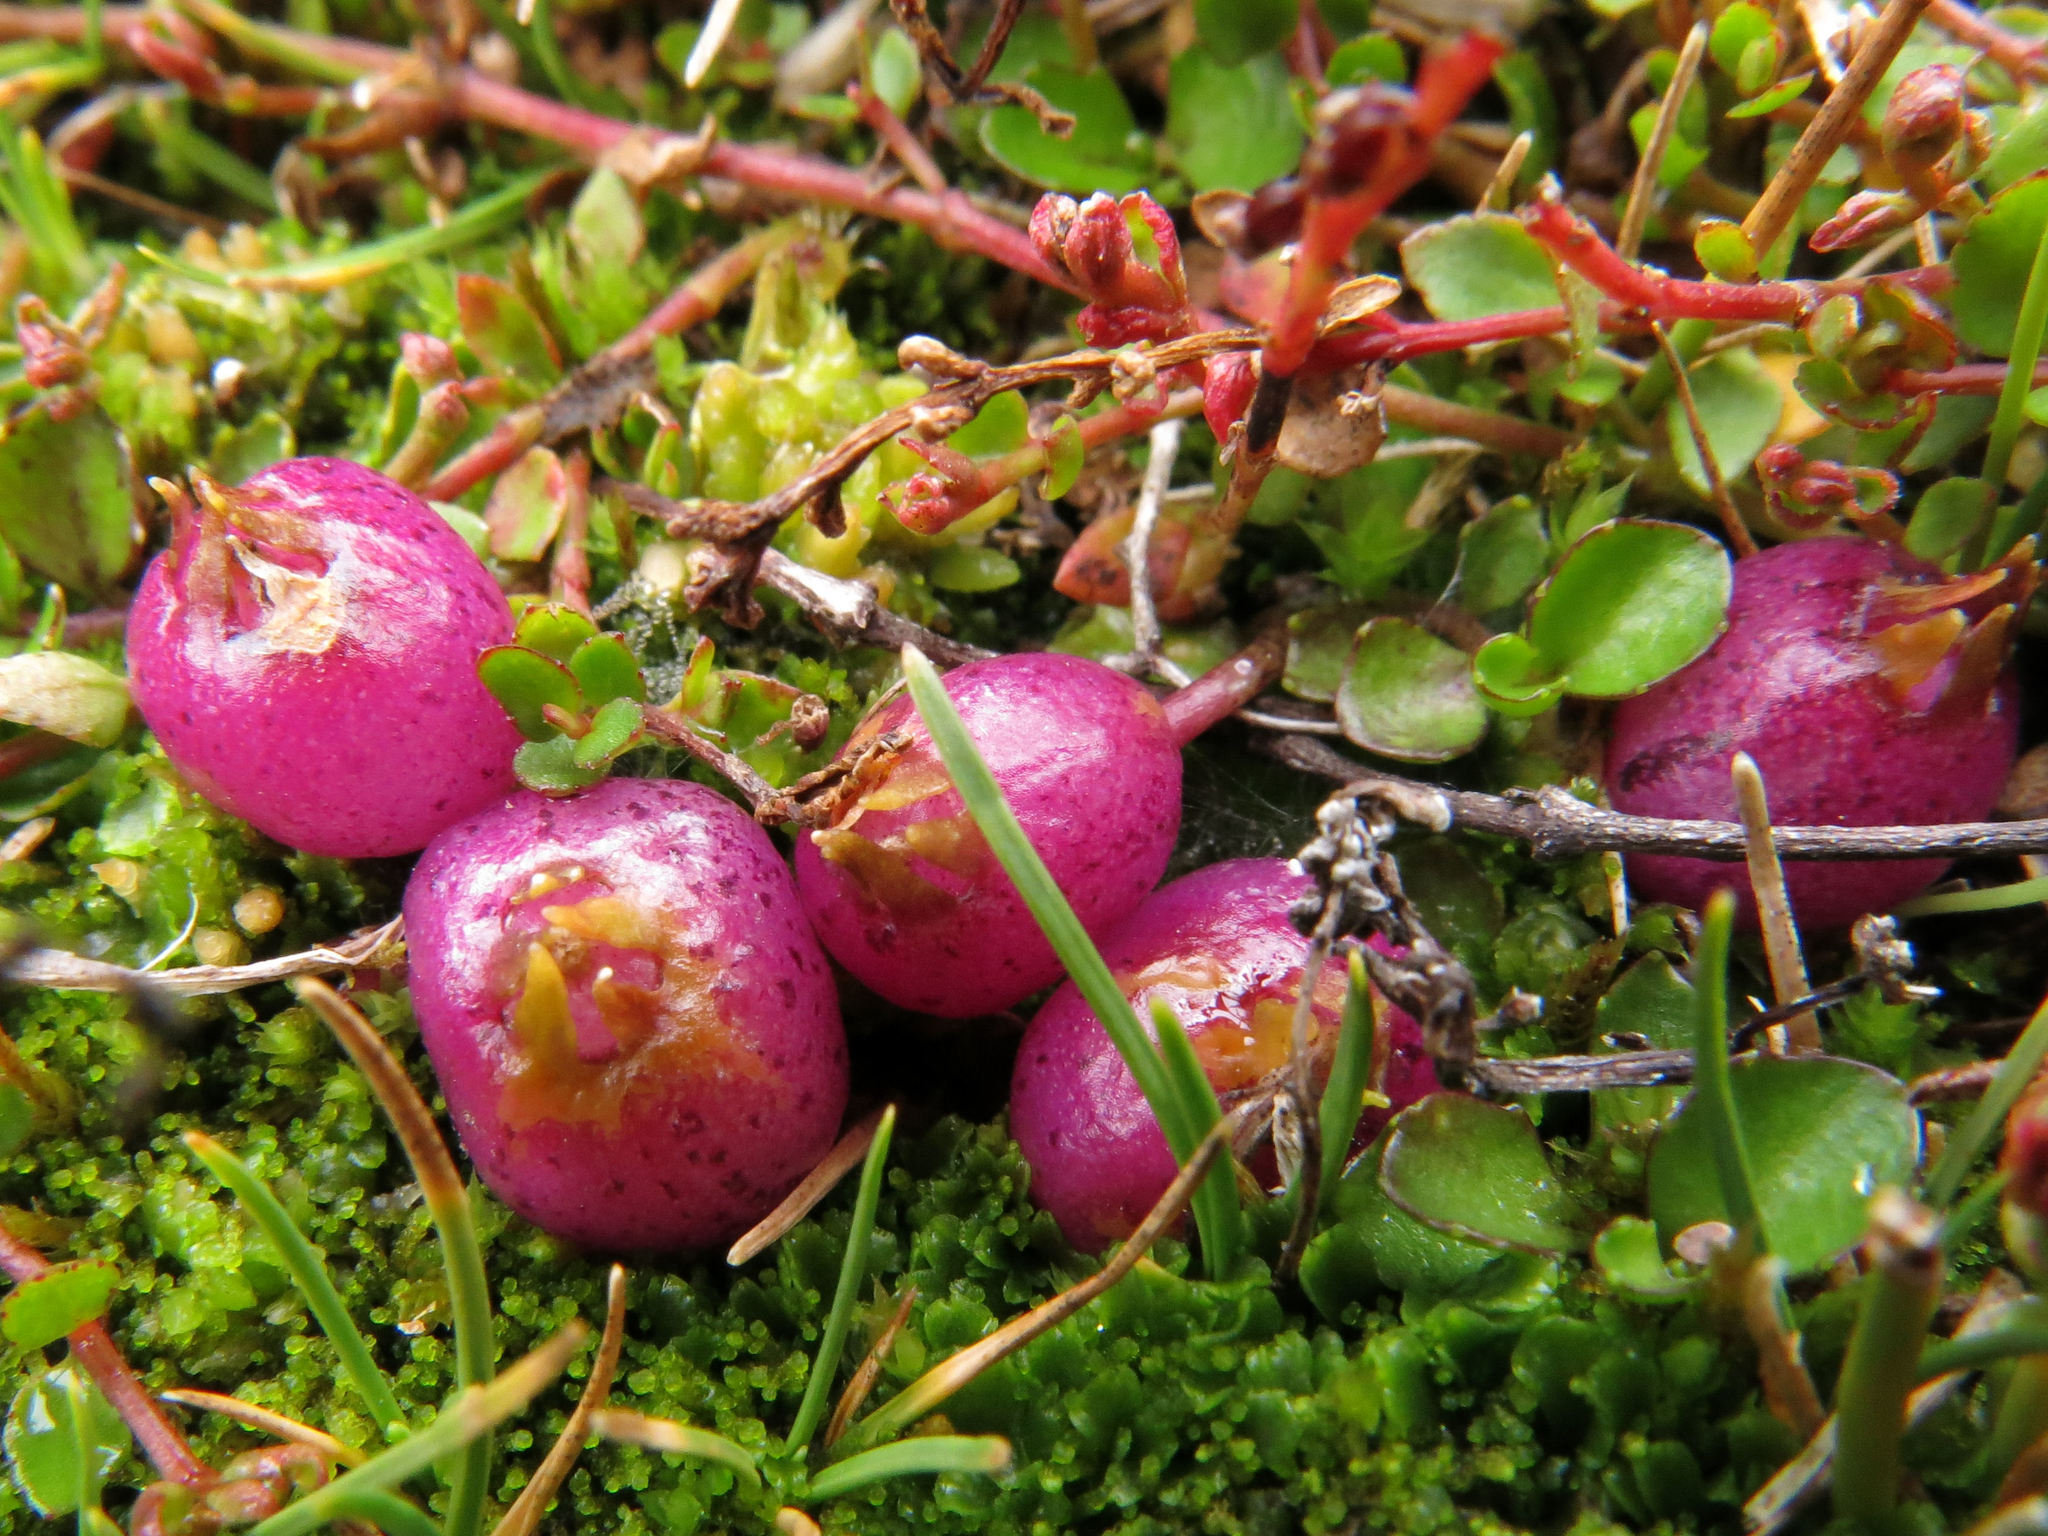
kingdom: Plantae
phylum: Tracheophyta
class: Magnoliopsida
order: Asterales
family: Campanulaceae
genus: Lobelia
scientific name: Lobelia angulata
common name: Lawn lobelia
